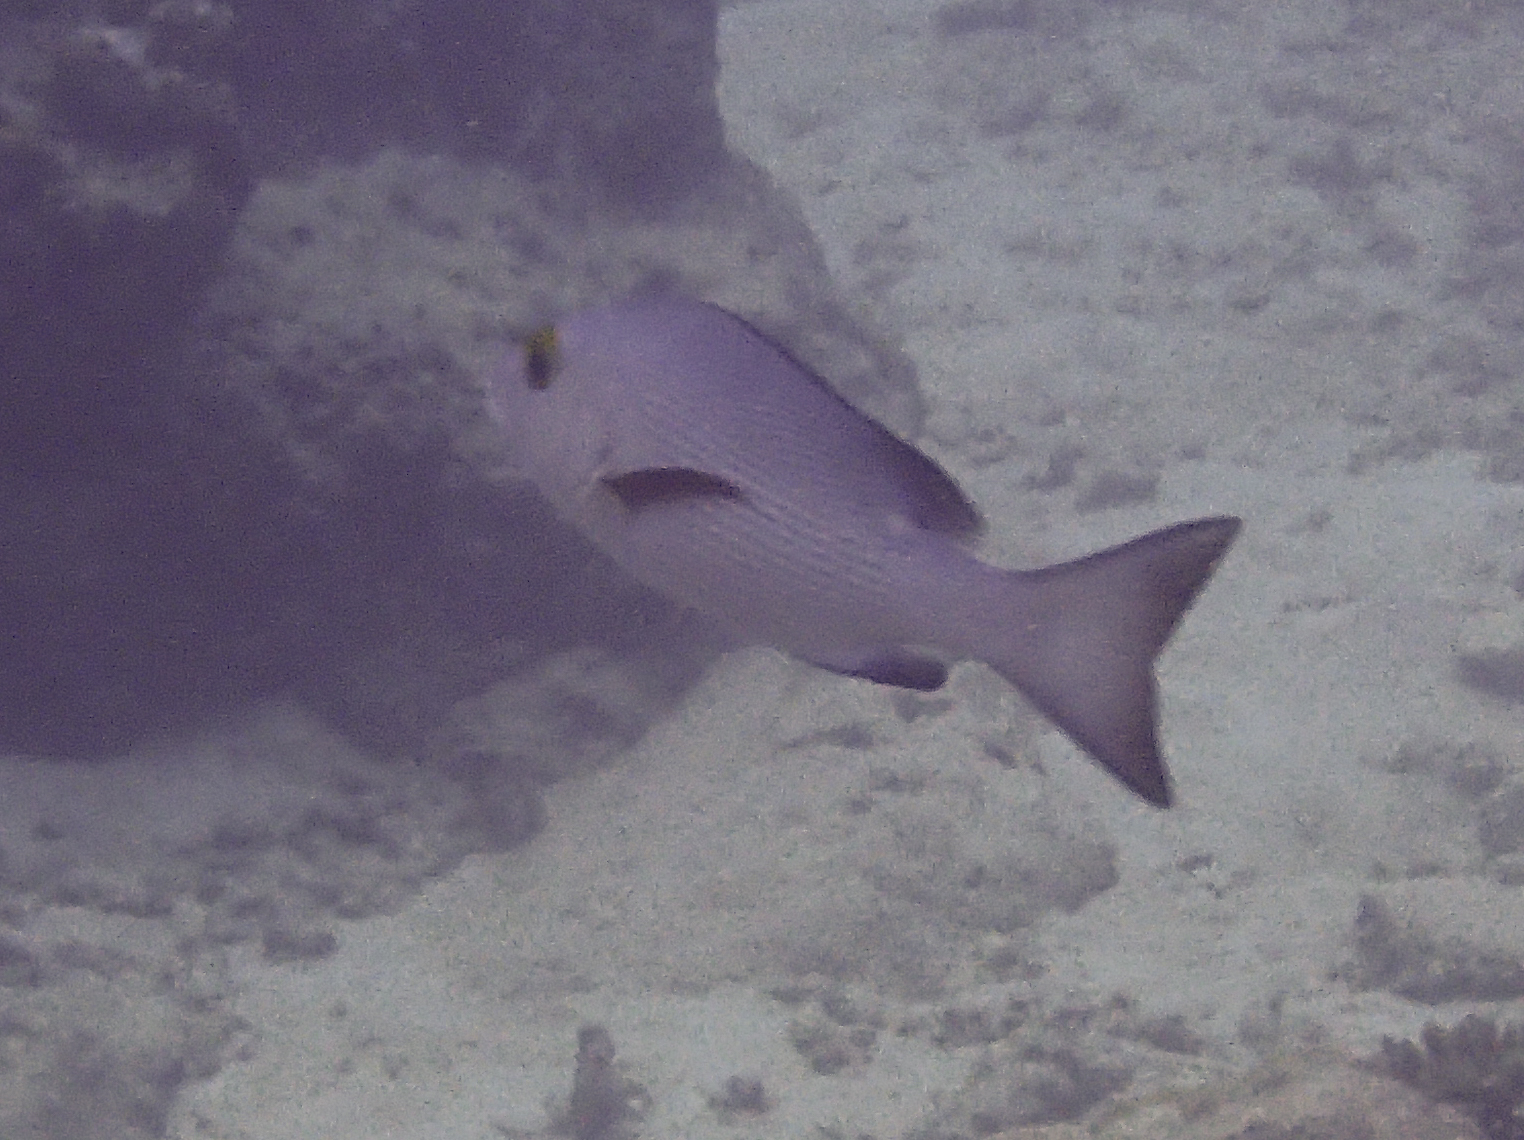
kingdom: Animalia
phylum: Chordata
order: Perciformes
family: Lutjanidae
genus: Lutjanus
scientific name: Lutjanus bohar
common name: Red bass
